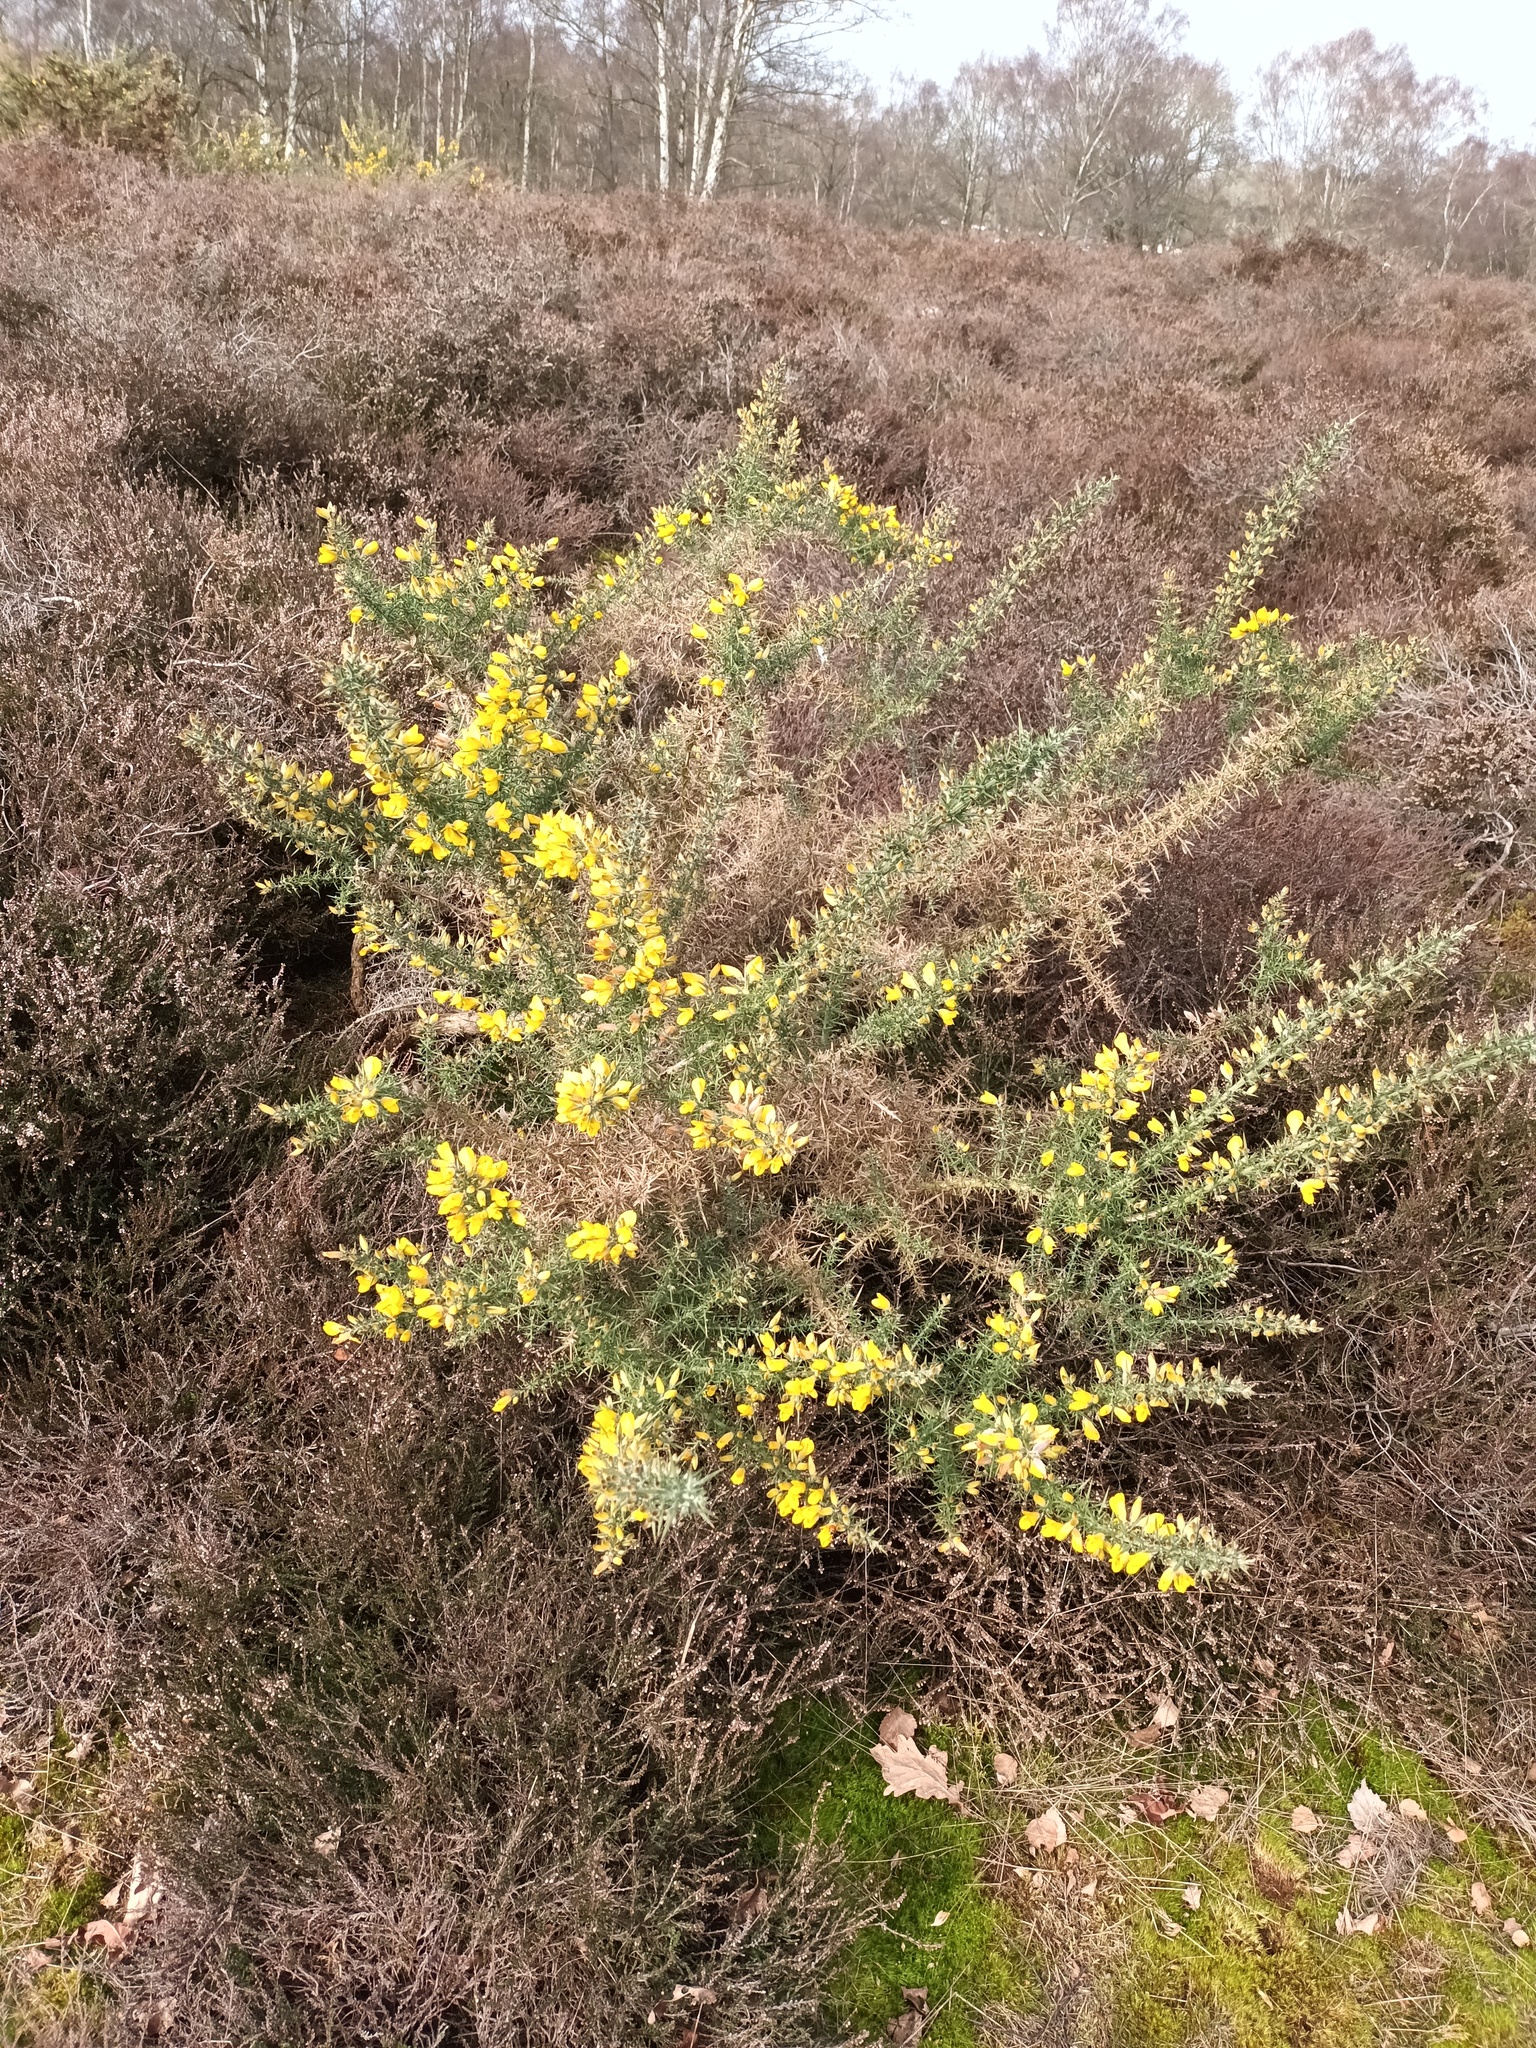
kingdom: Plantae
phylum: Tracheophyta
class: Magnoliopsida
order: Fabales
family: Fabaceae
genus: Ulex
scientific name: Ulex europaeus
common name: Common gorse
